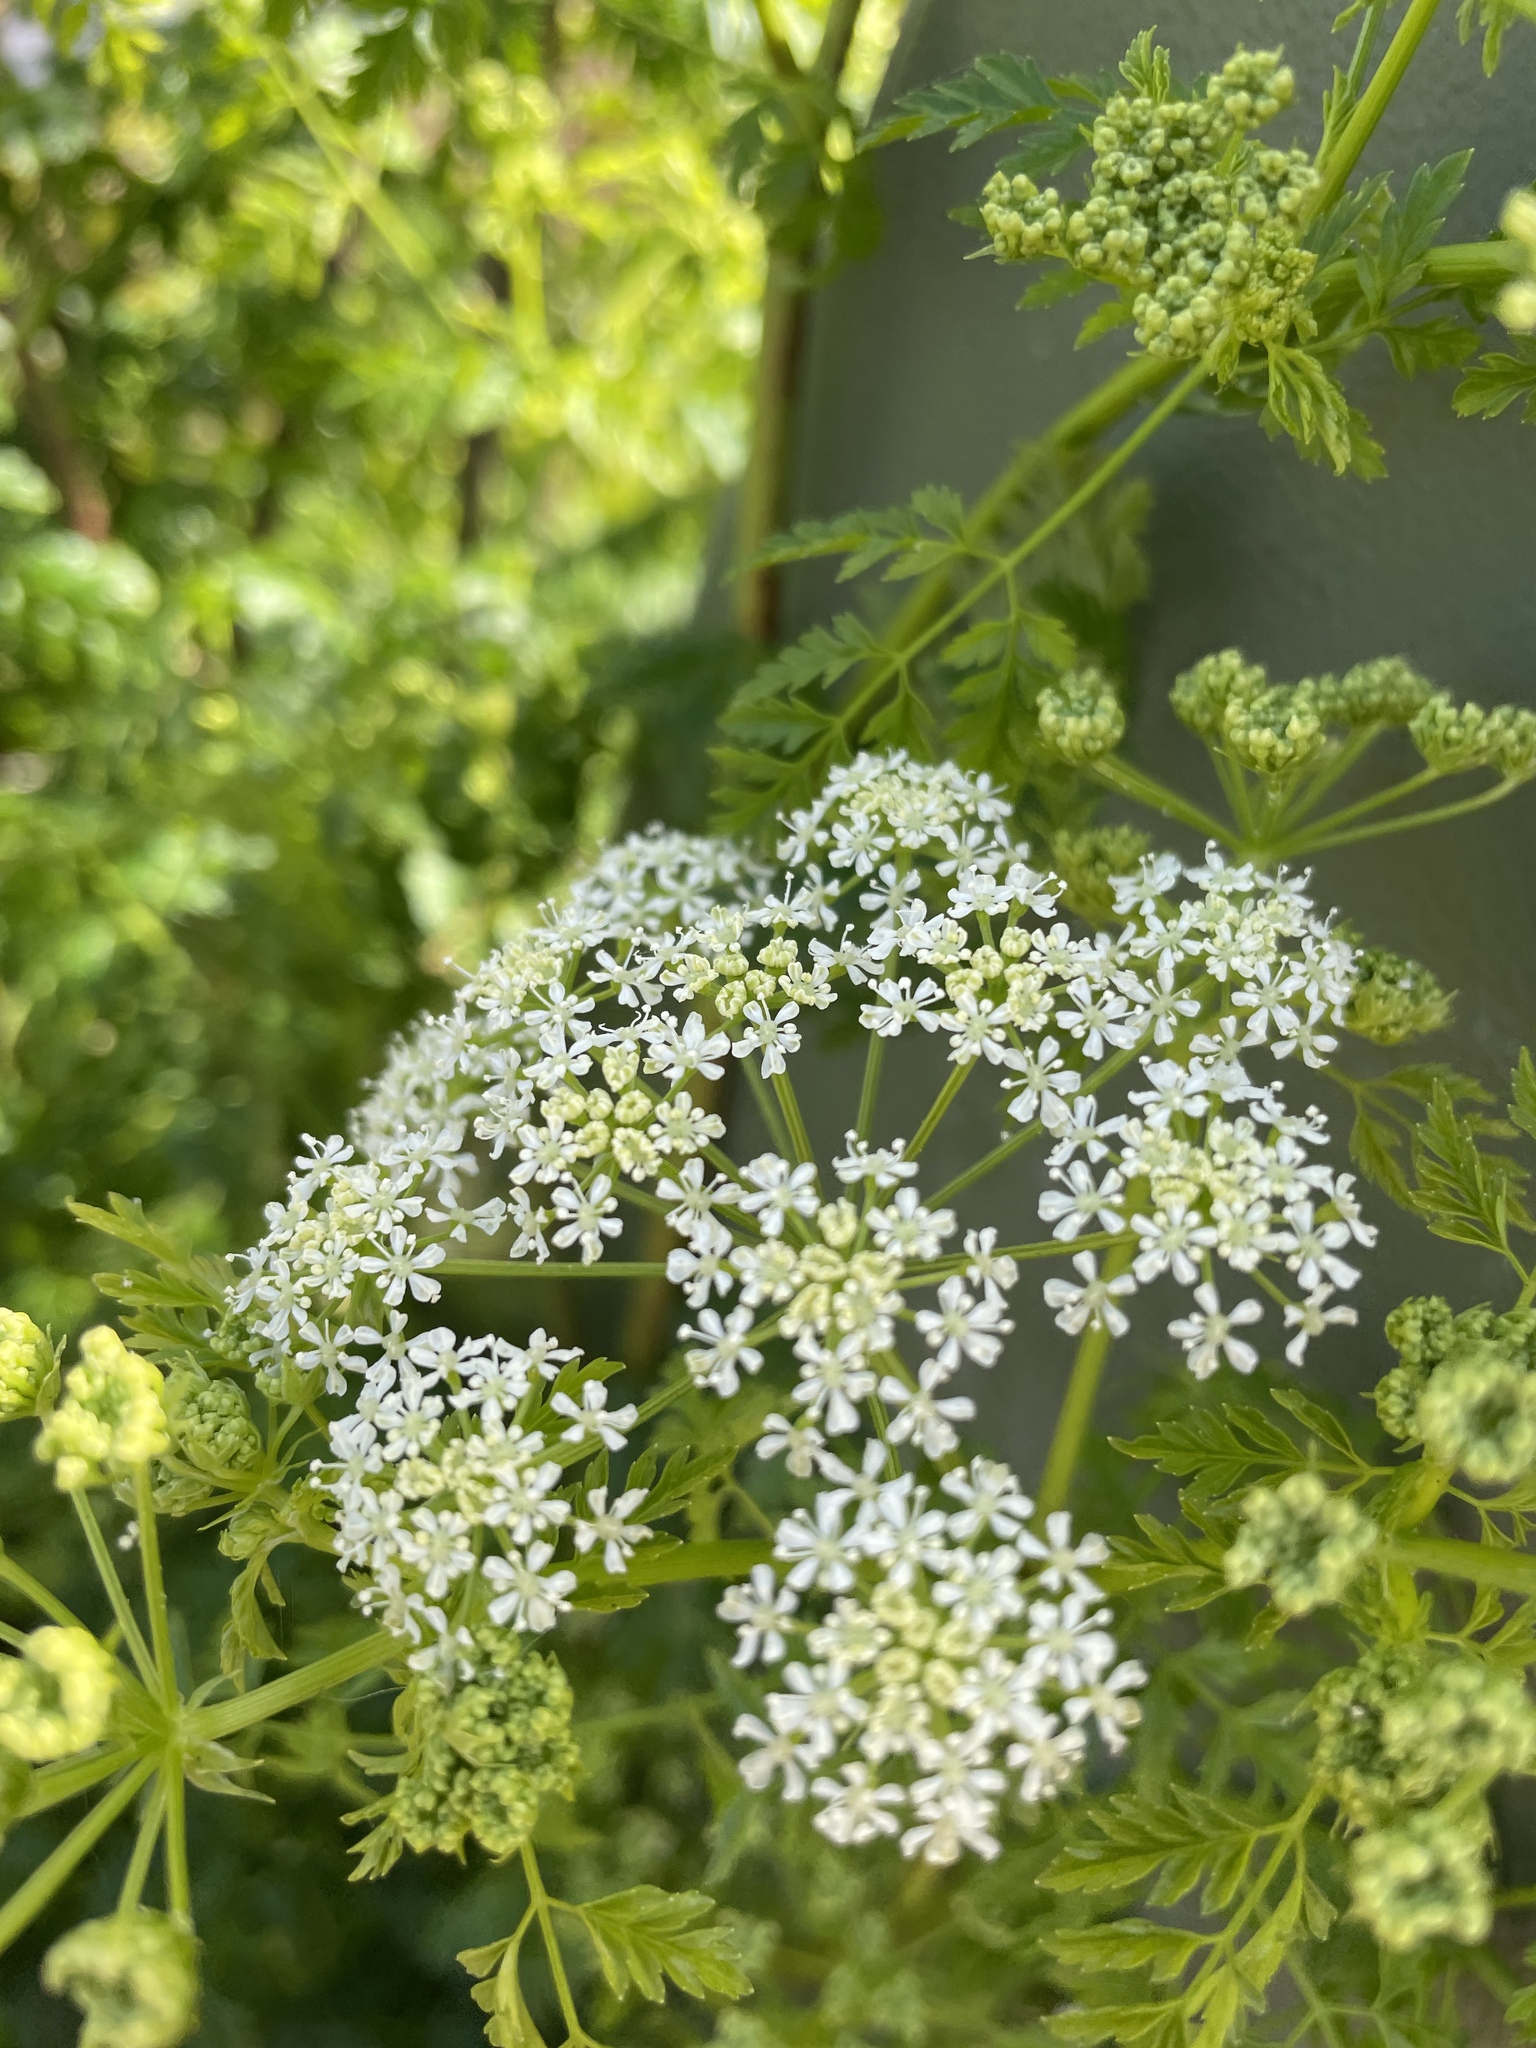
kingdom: Plantae
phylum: Tracheophyta
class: Magnoliopsida
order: Apiales
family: Apiaceae
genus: Conium
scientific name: Conium maculatum
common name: Hemlock
